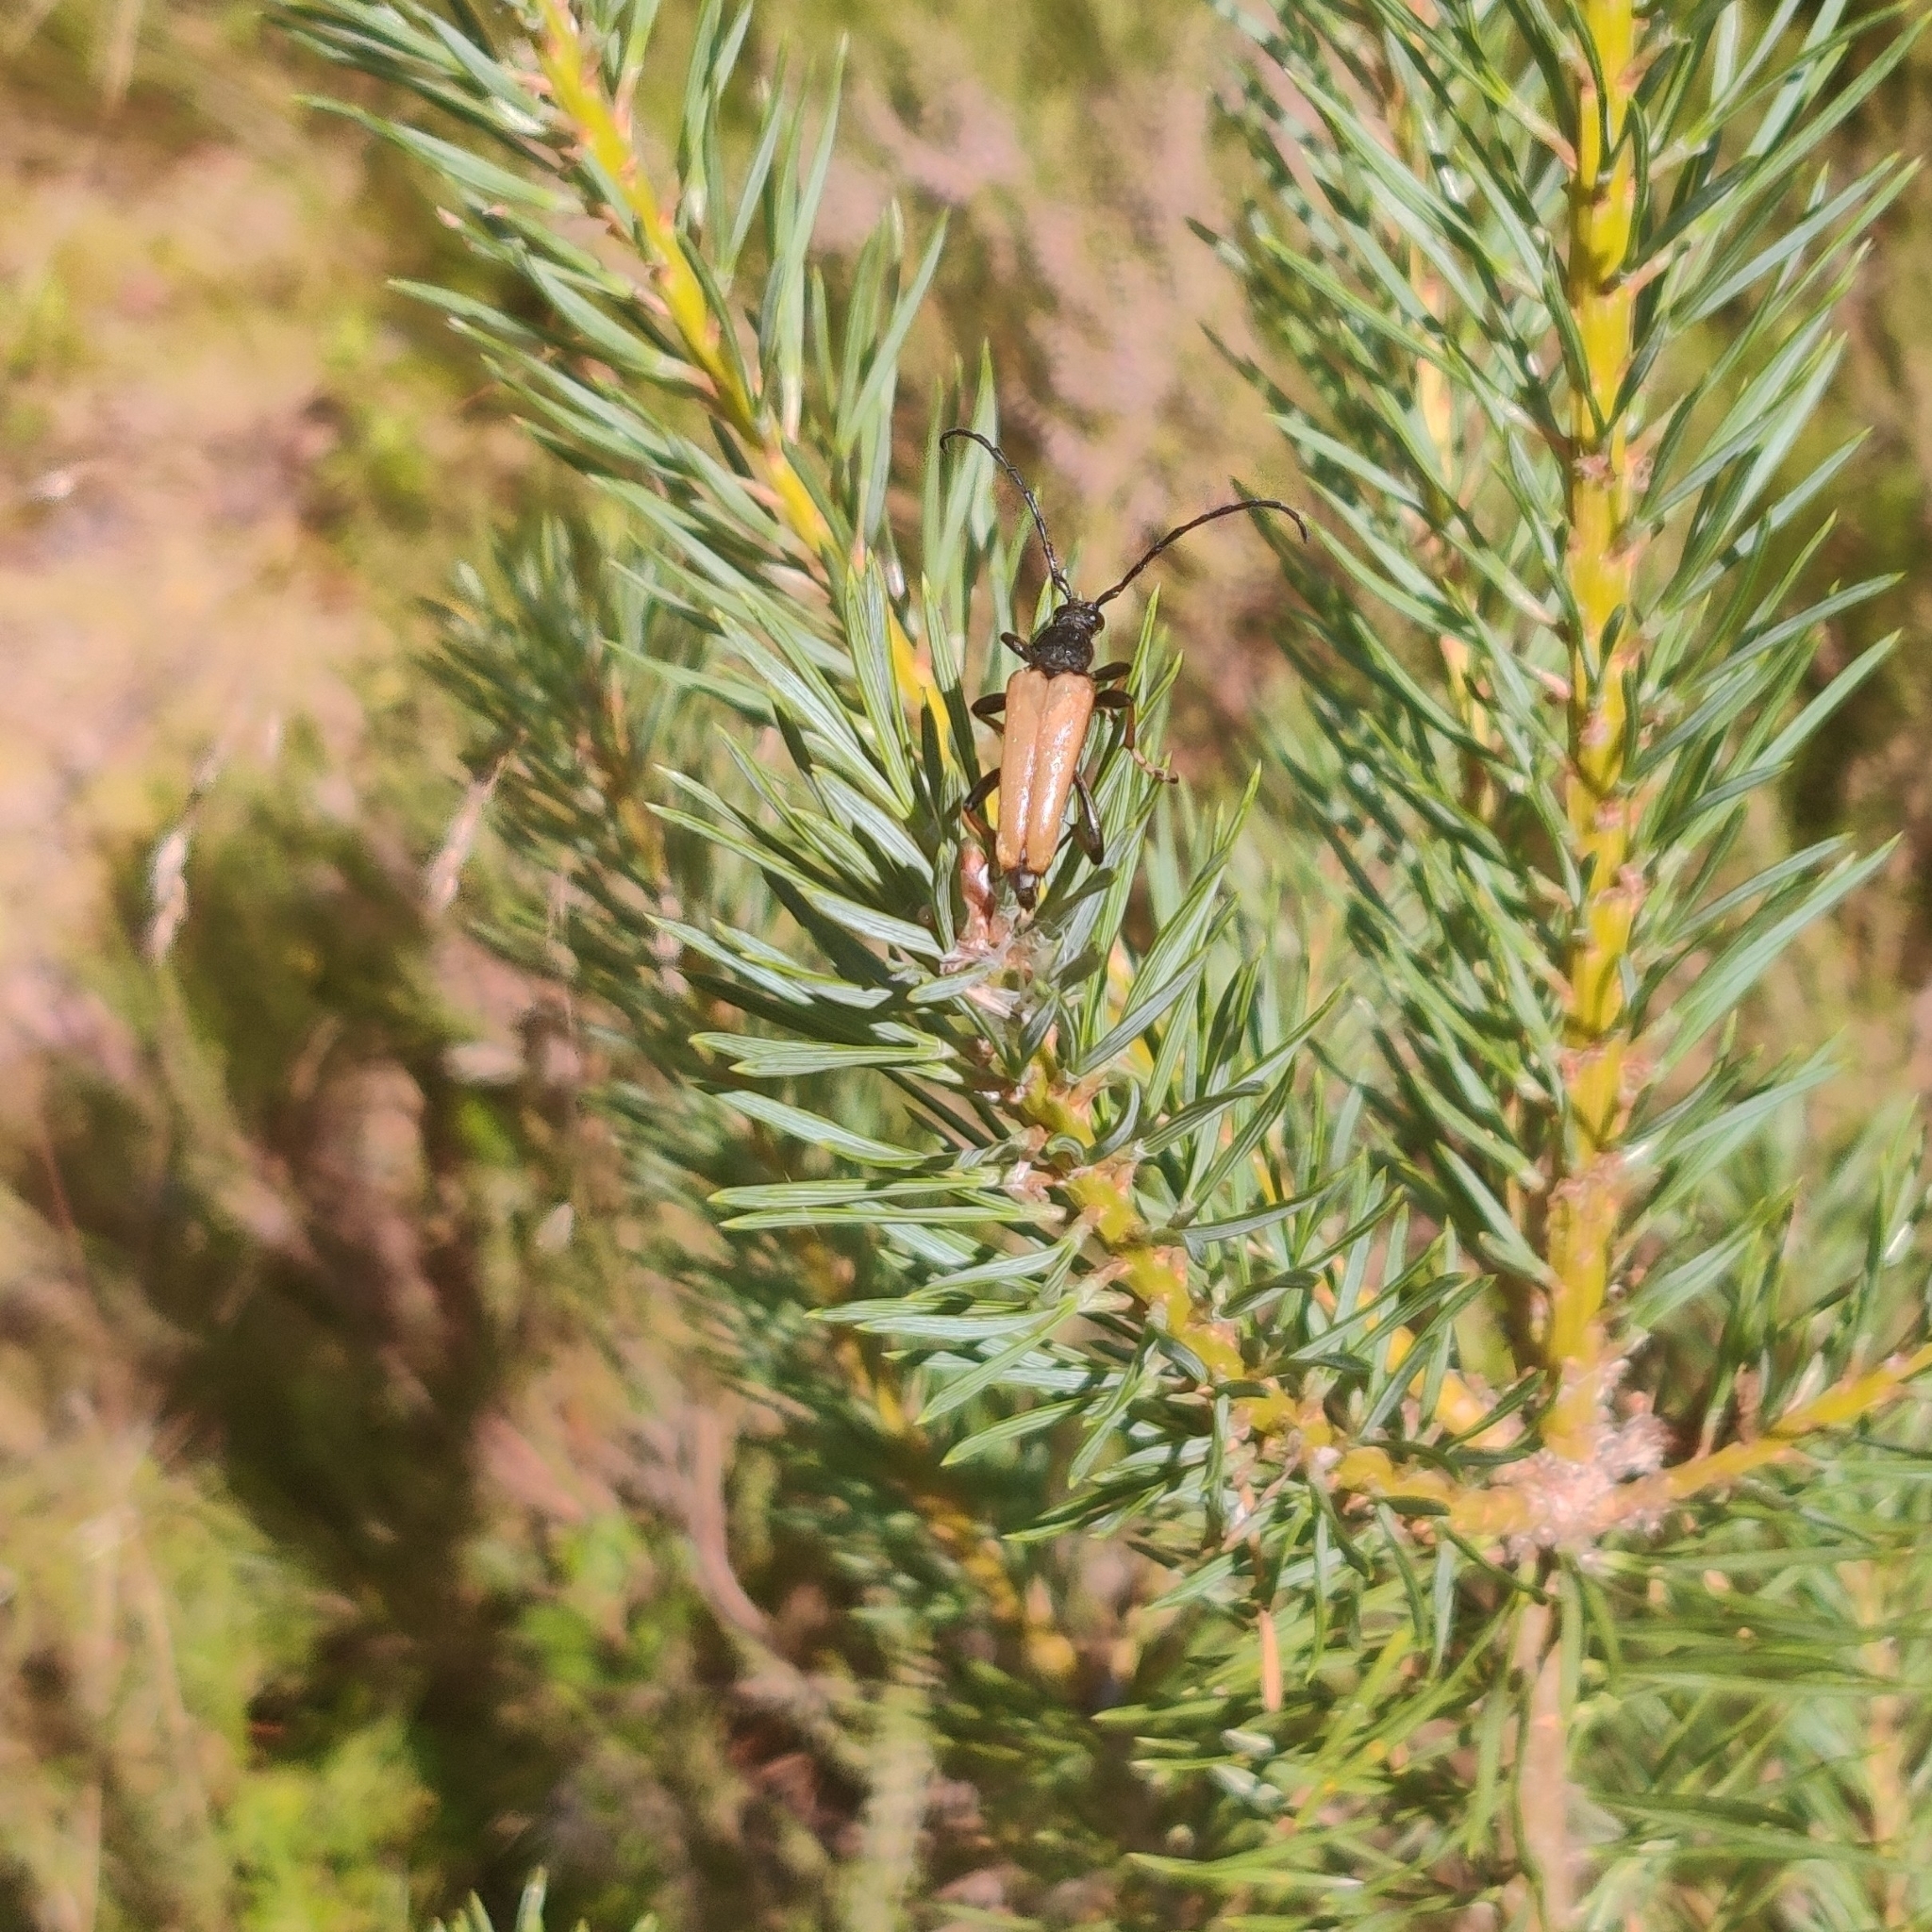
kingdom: Animalia
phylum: Arthropoda
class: Insecta
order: Coleoptera
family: Cerambycidae
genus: Stictoleptura
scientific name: Stictoleptura rubra
